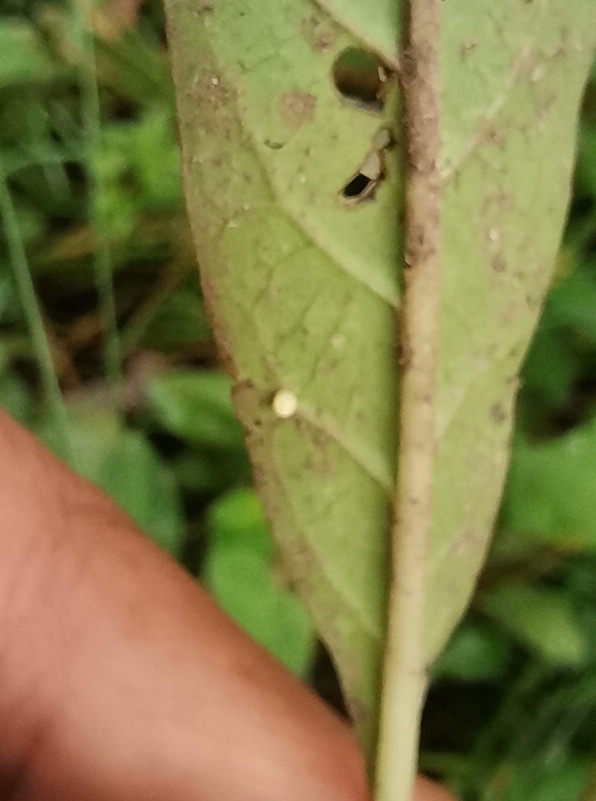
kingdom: Animalia
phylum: Arthropoda
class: Insecta
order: Lepidoptera
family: Nymphalidae
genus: Danaus
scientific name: Danaus plexippus
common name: Monarch
